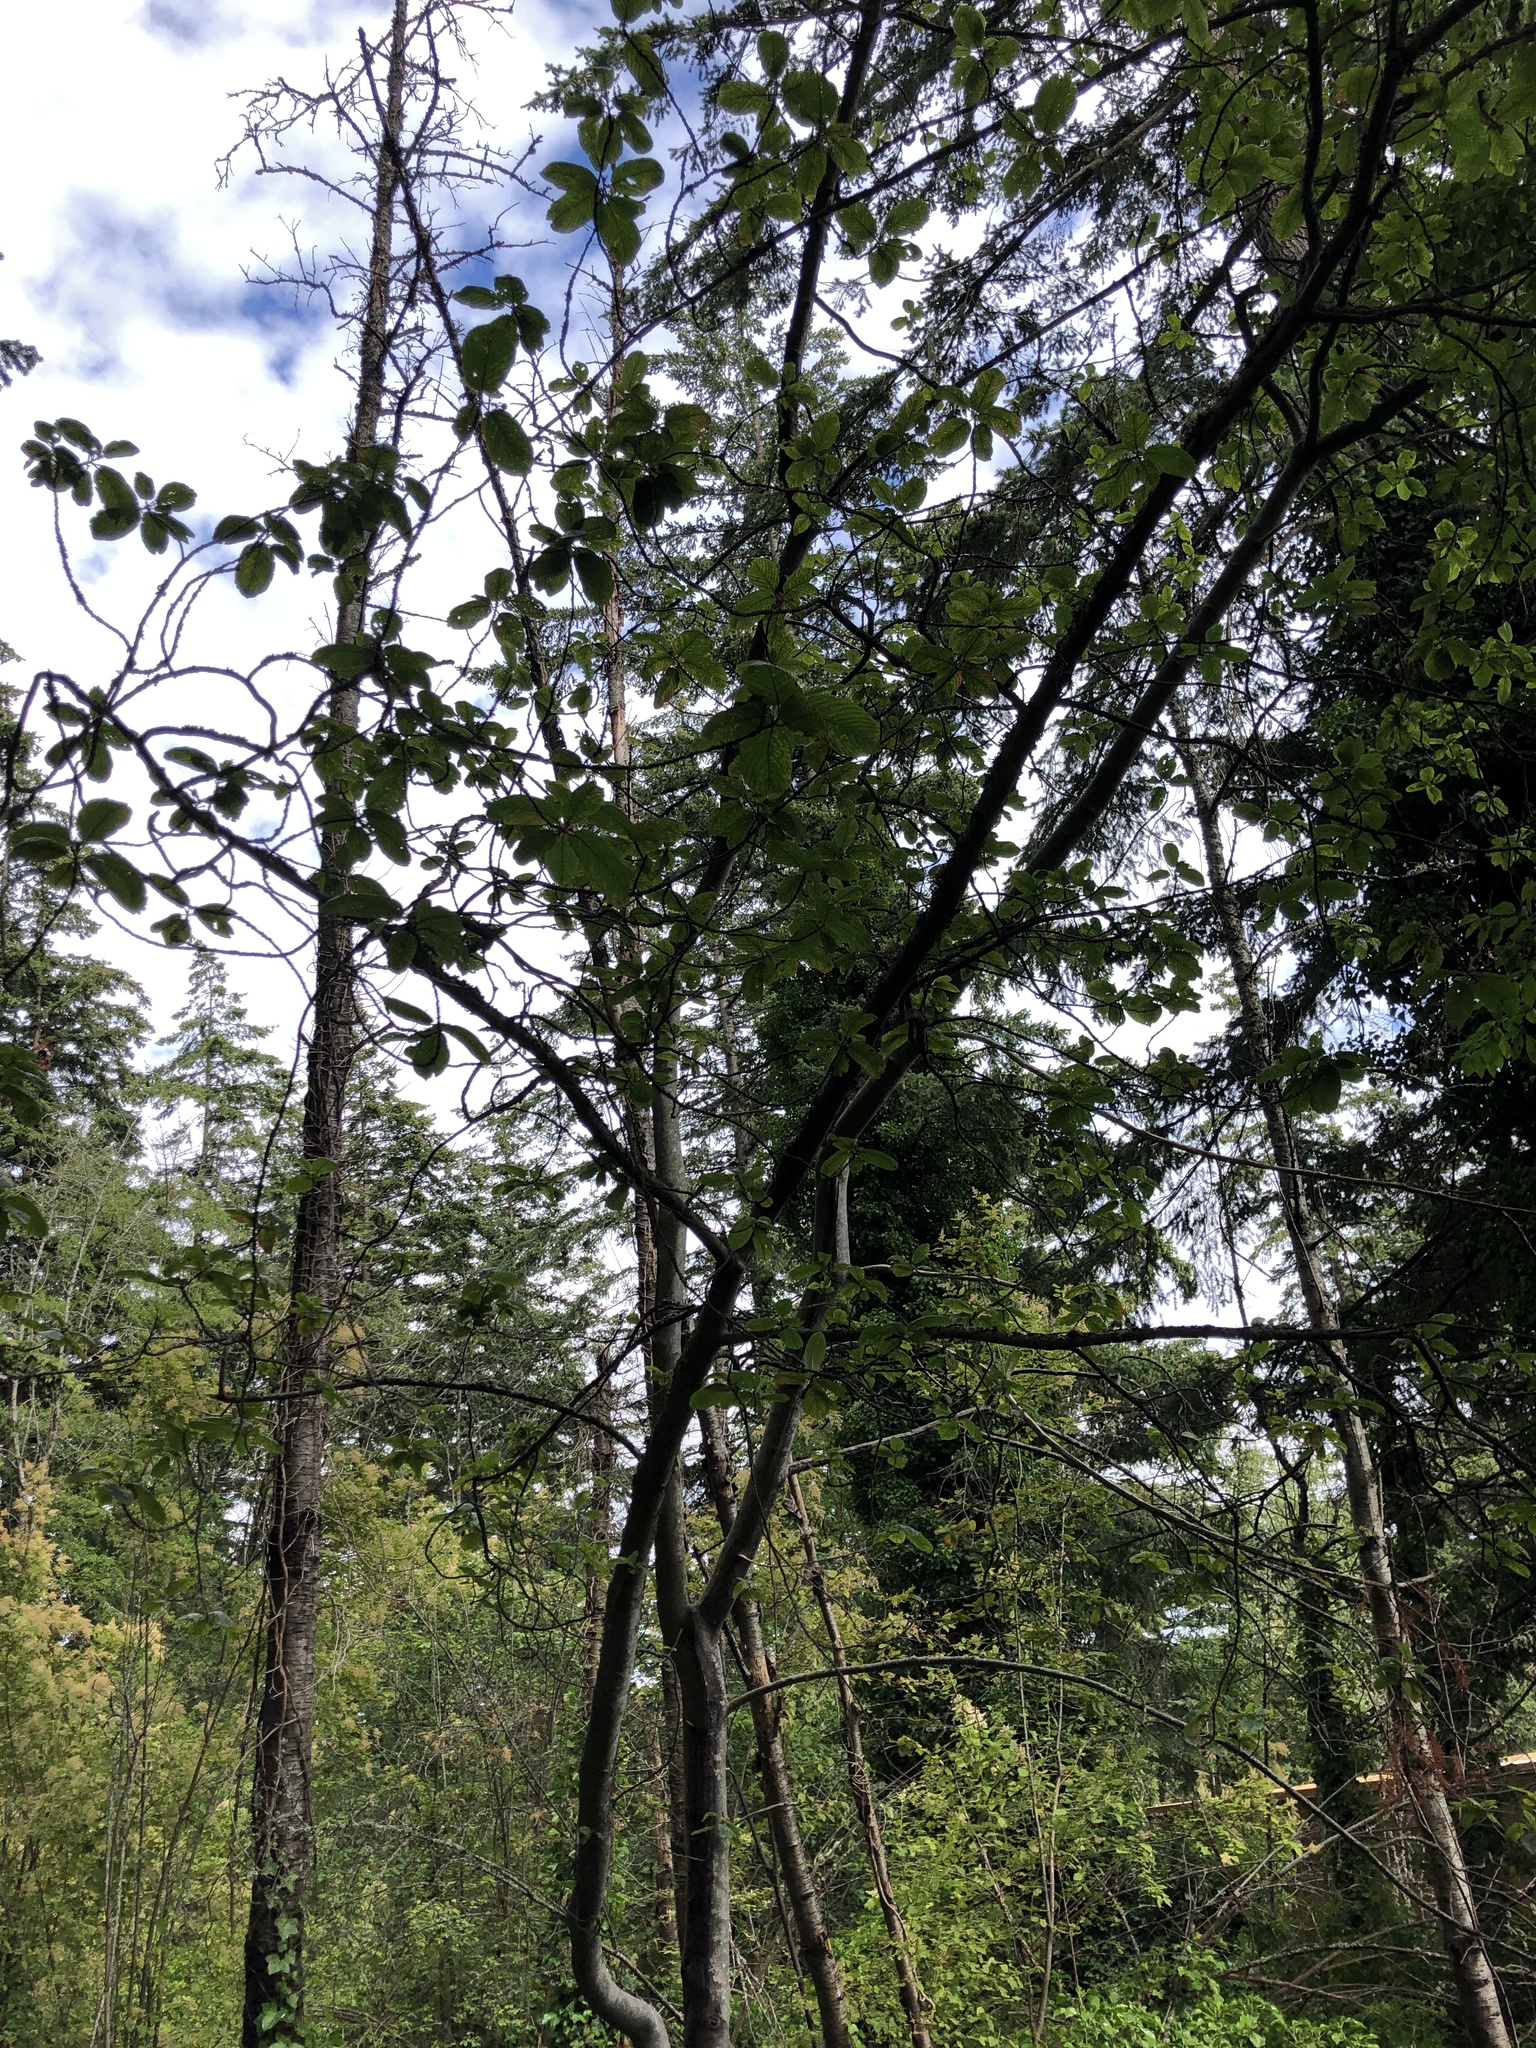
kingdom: Plantae
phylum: Tracheophyta
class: Magnoliopsida
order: Rosales
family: Rhamnaceae
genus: Frangula
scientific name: Frangula purshiana
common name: Cascara buckthorn
